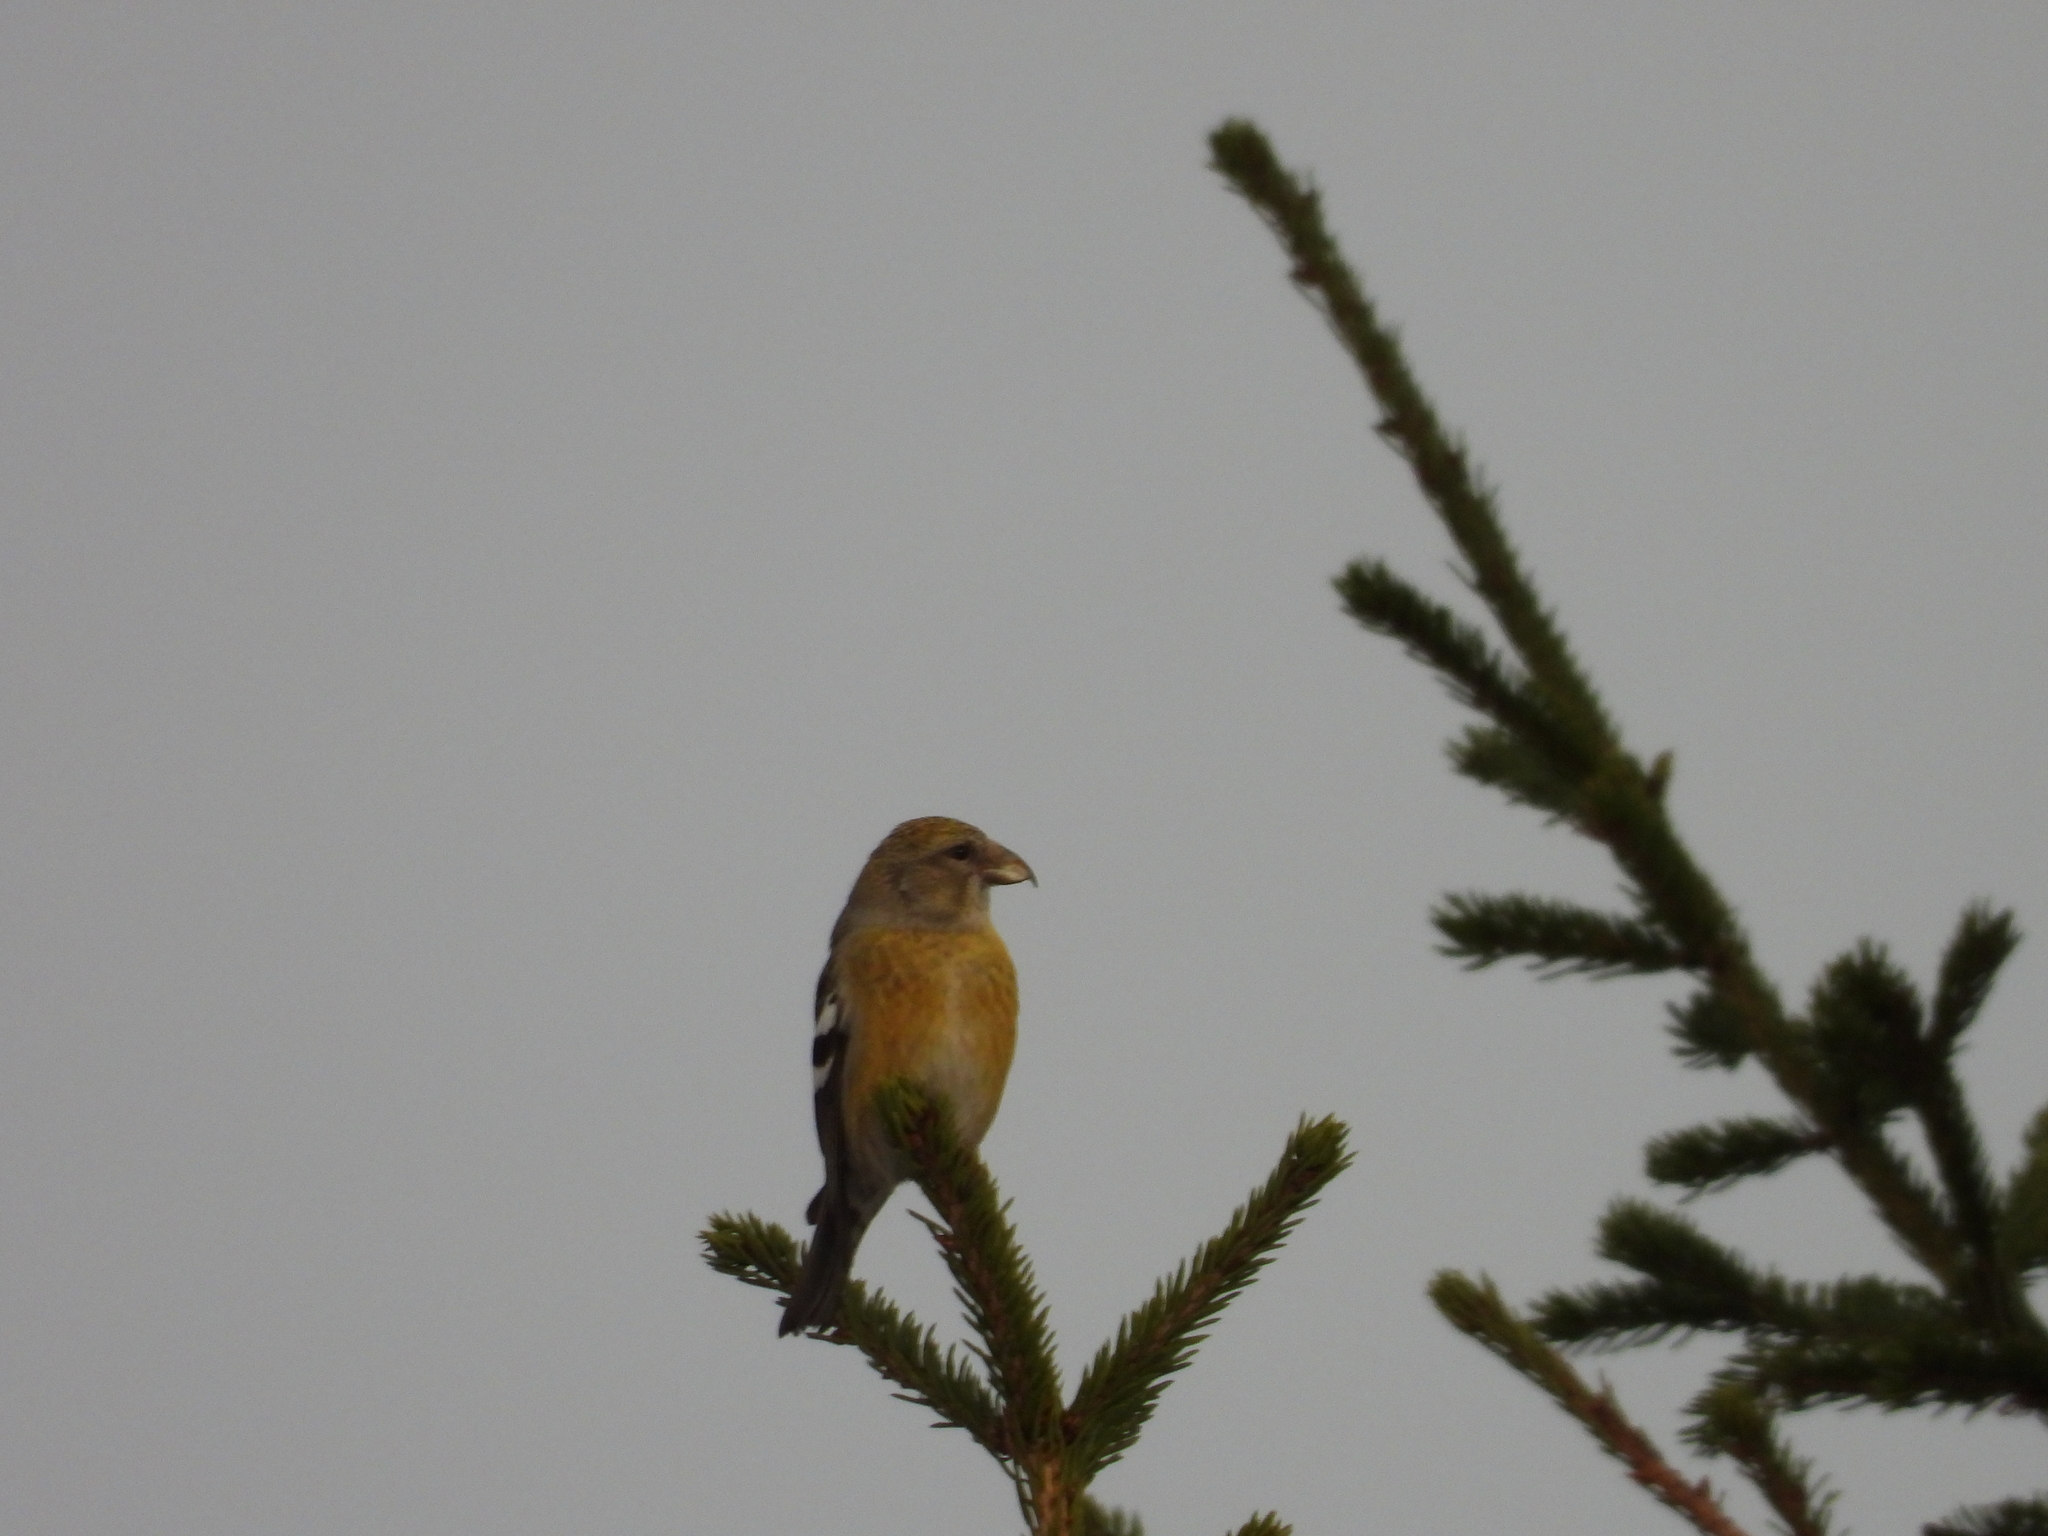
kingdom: Animalia
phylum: Chordata
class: Aves
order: Passeriformes
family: Fringillidae
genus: Loxia
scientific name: Loxia leucoptera
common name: Two-barred crossbill
